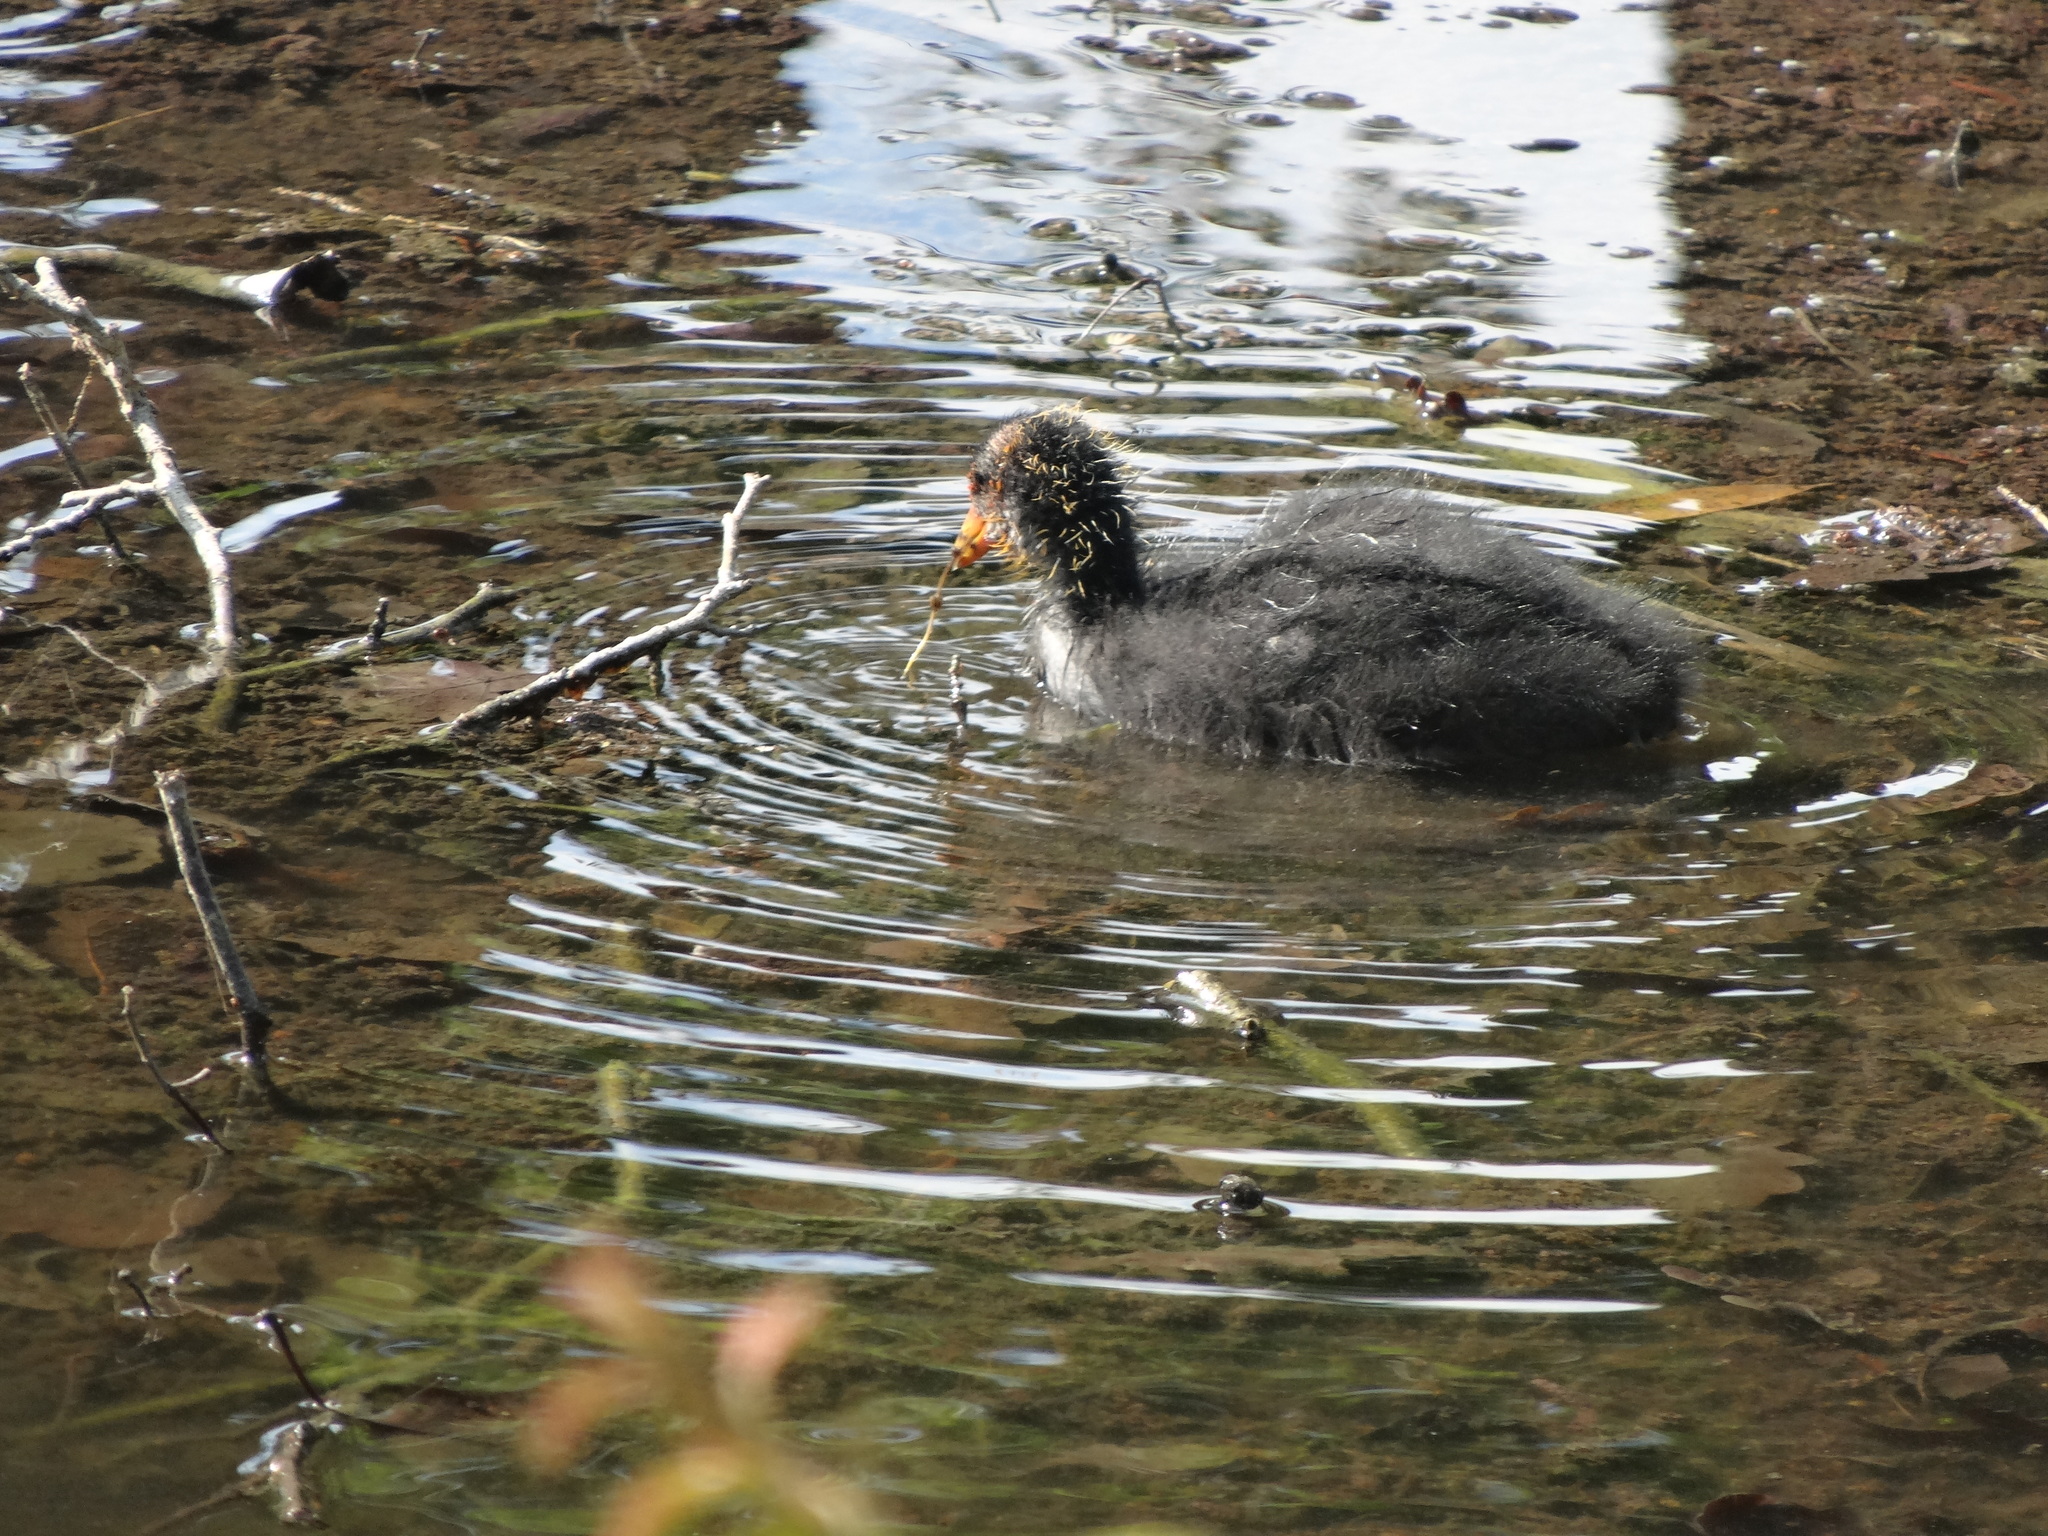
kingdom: Animalia
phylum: Chordata
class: Aves
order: Gruiformes
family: Rallidae
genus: Gallinula
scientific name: Gallinula chloropus
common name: Common moorhen
